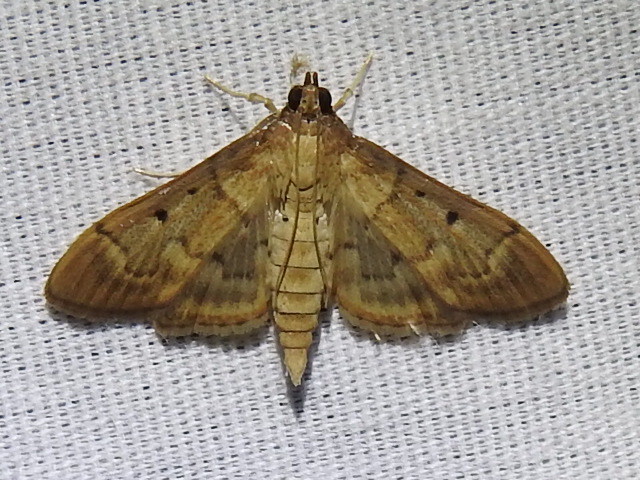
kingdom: Animalia
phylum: Arthropoda
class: Insecta
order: Lepidoptera
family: Crambidae
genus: Herpetogramma
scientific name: Herpetogramma bipunctalis
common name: Southern beet webworm
